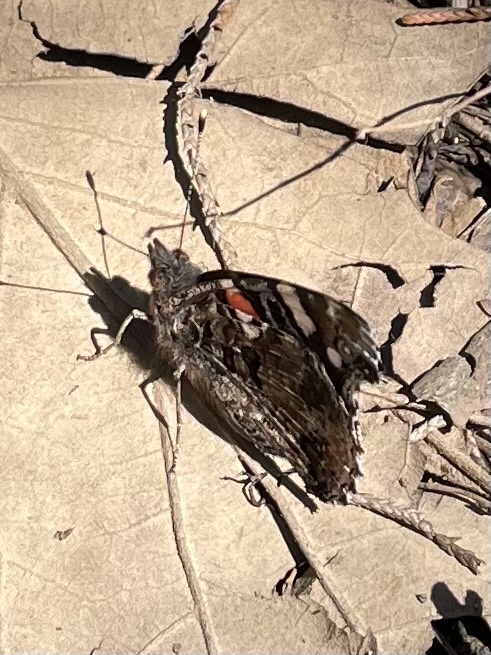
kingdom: Animalia
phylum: Arthropoda
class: Insecta
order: Lepidoptera
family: Nymphalidae
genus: Vanessa
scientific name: Vanessa atalanta
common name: Red admiral
